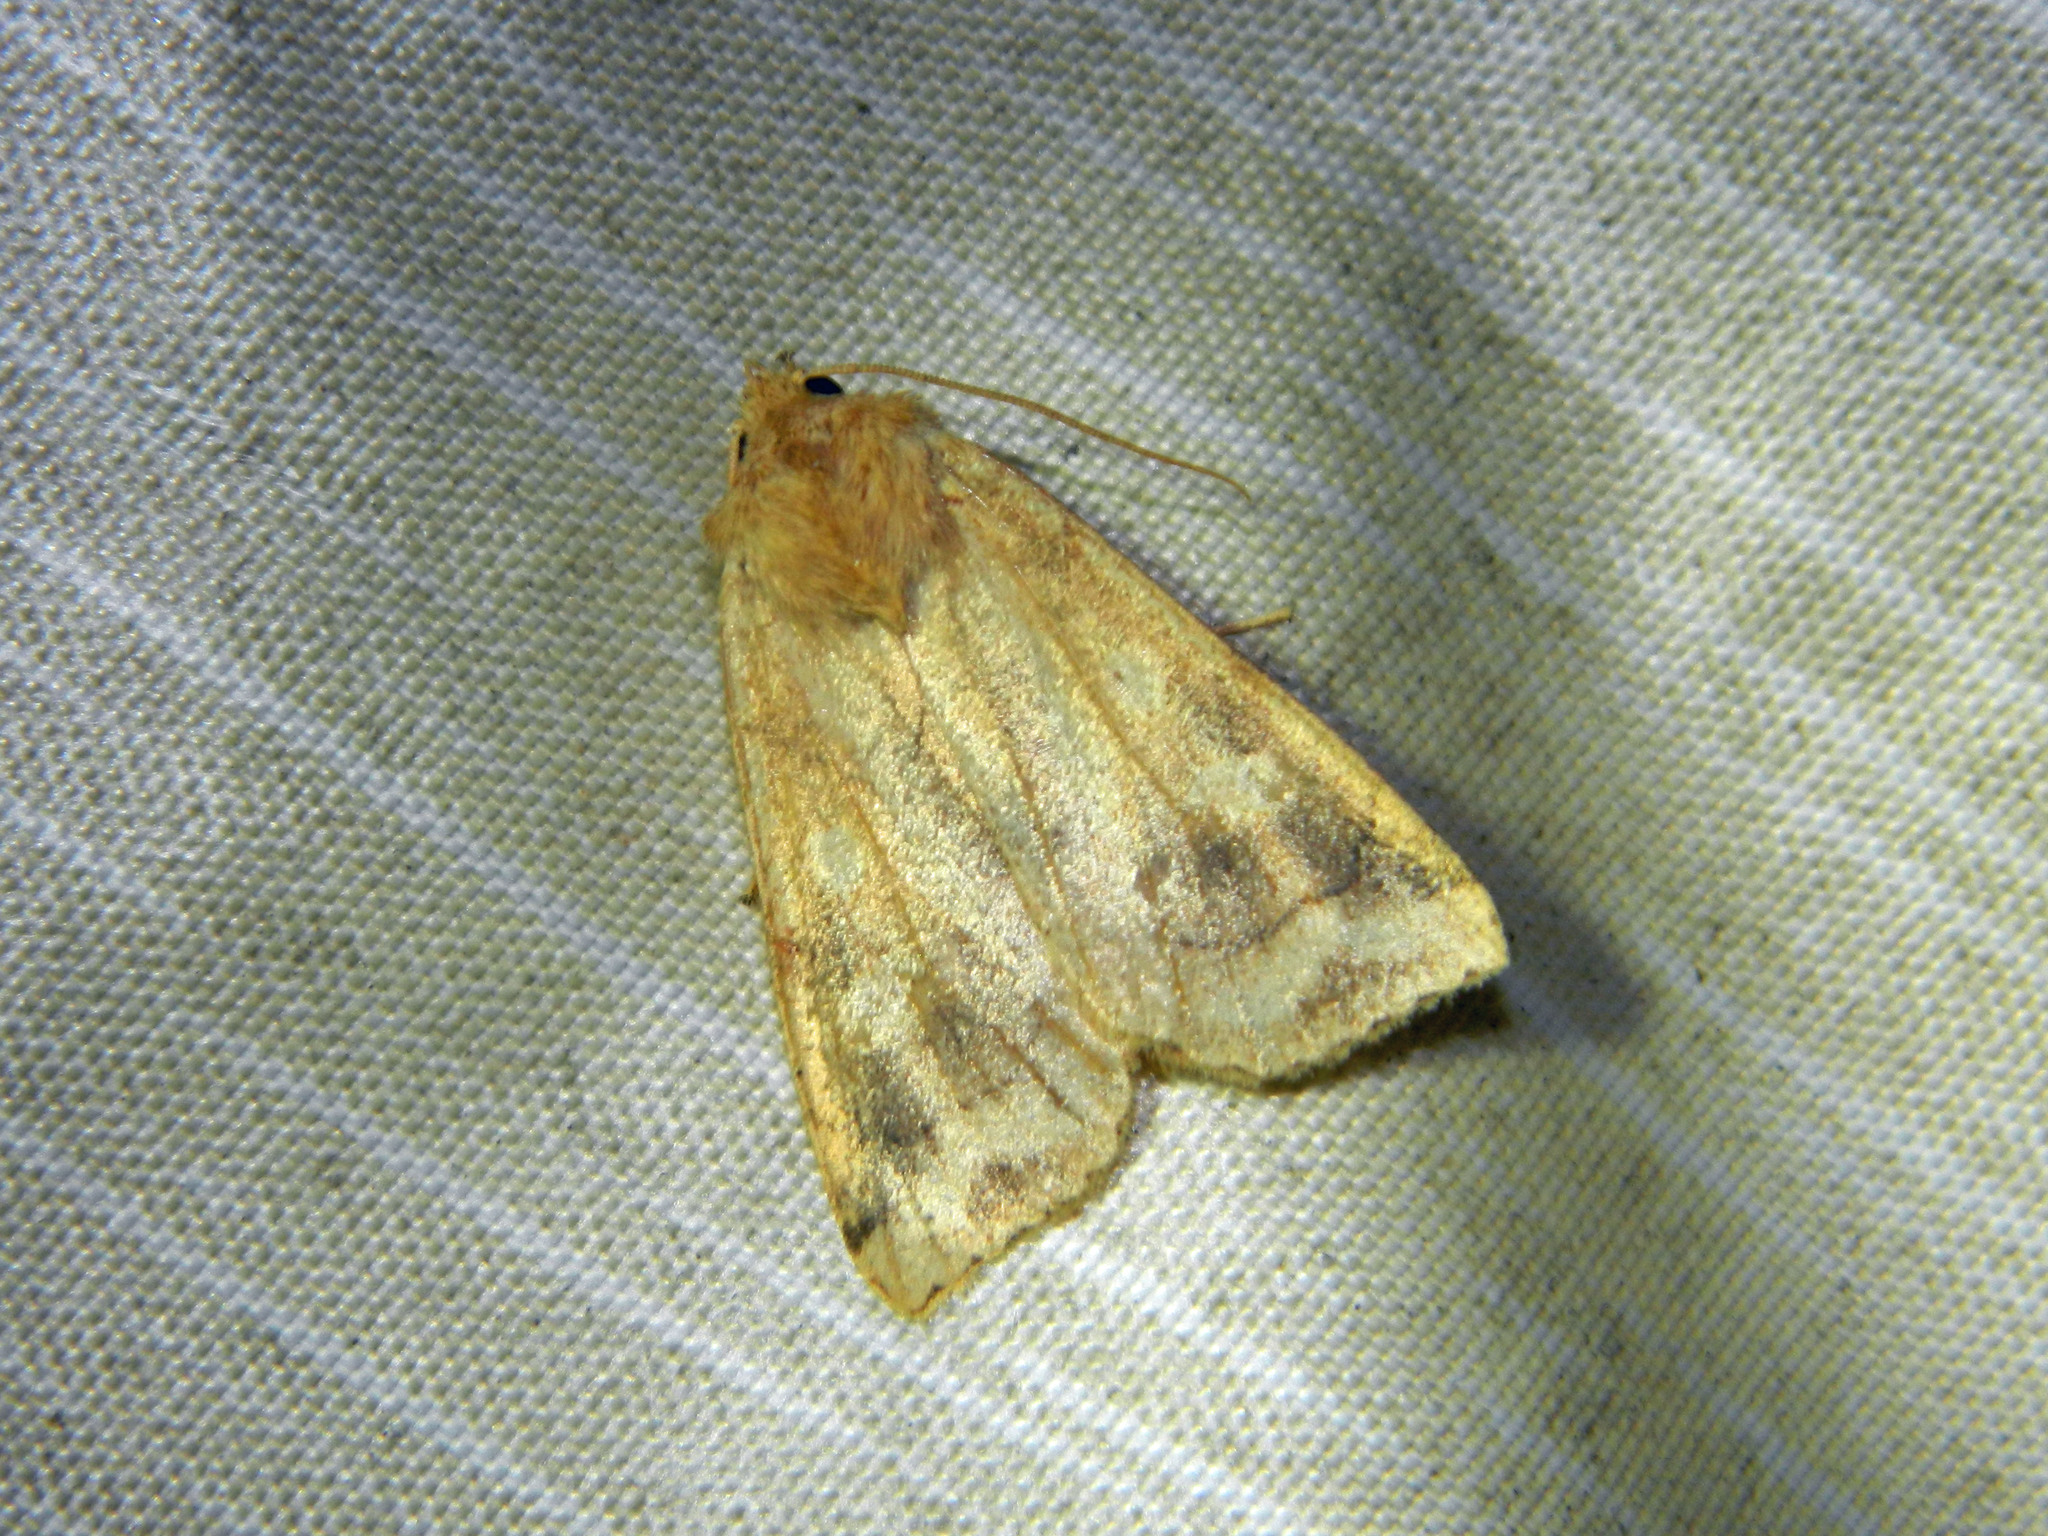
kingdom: Animalia
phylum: Arthropoda
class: Insecta
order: Lepidoptera
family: Noctuidae
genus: Enargia
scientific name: Enargia decolor
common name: Aspen twoleaf tier moth
